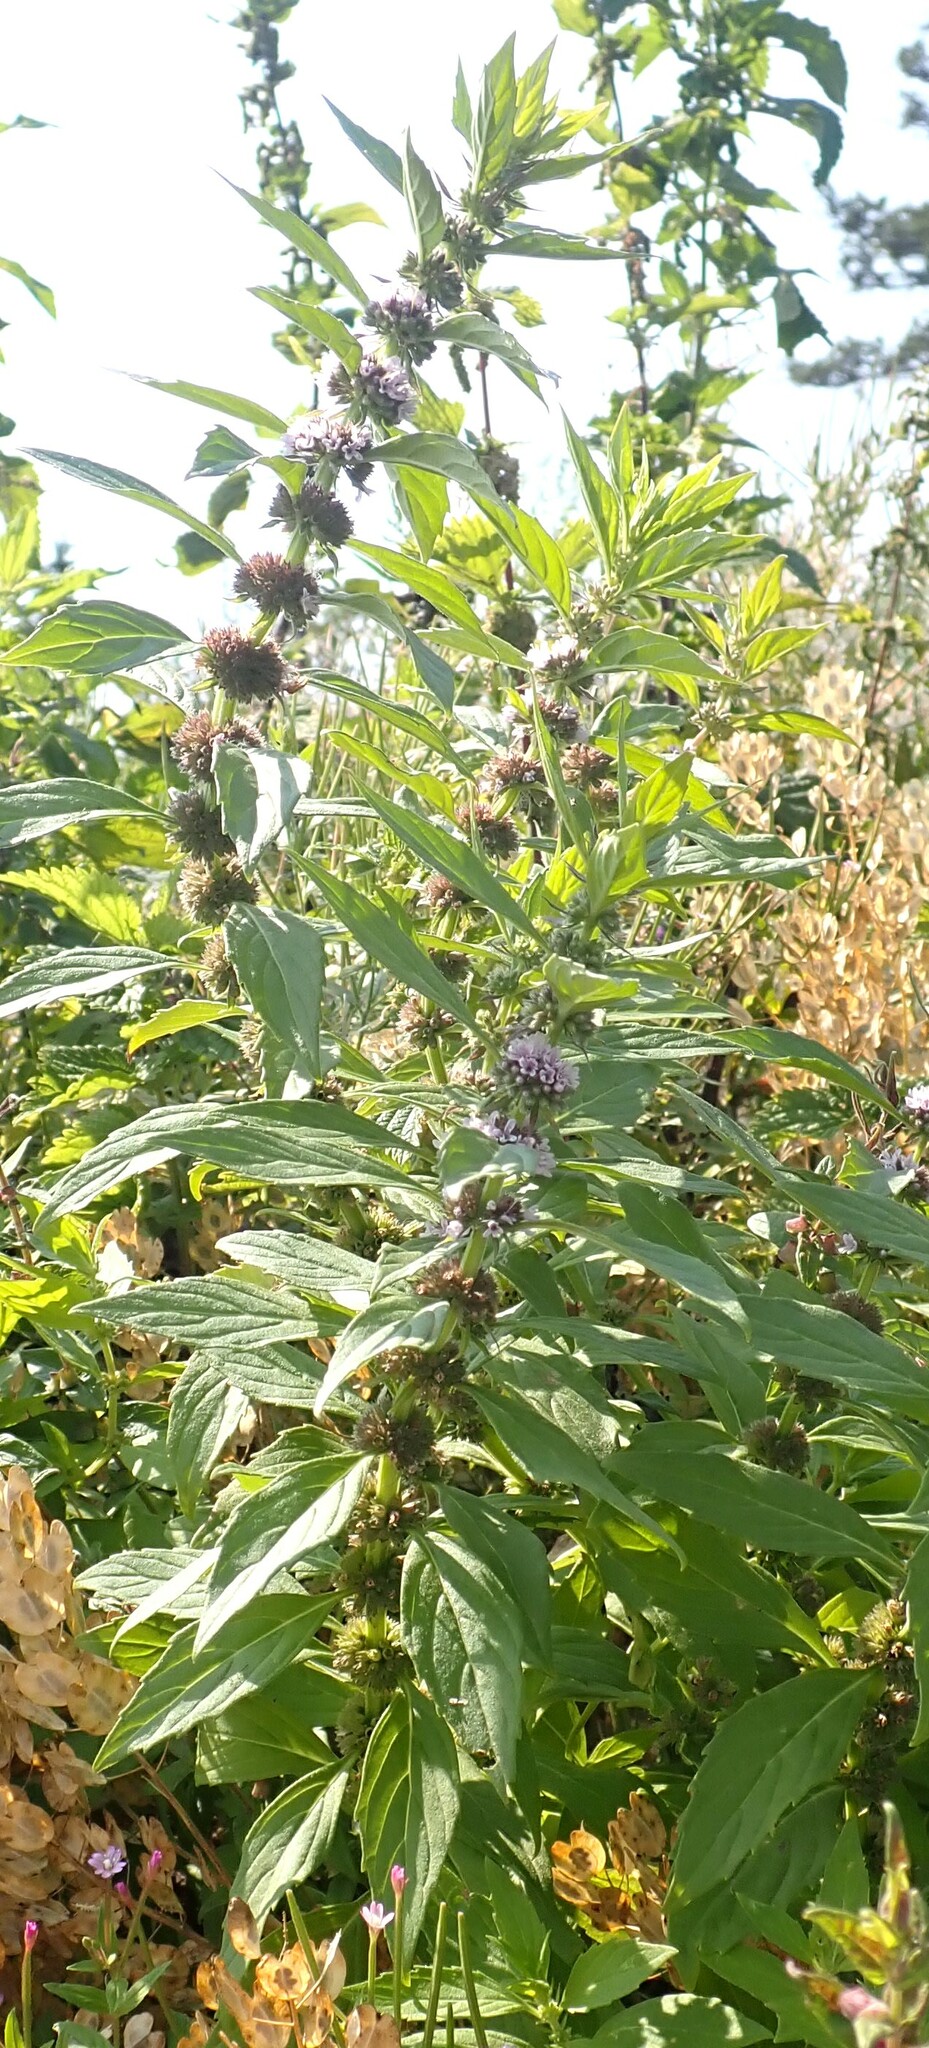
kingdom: Plantae
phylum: Tracheophyta
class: Magnoliopsida
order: Lamiales
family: Lamiaceae
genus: Mentha
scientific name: Mentha canadensis
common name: American corn mint
